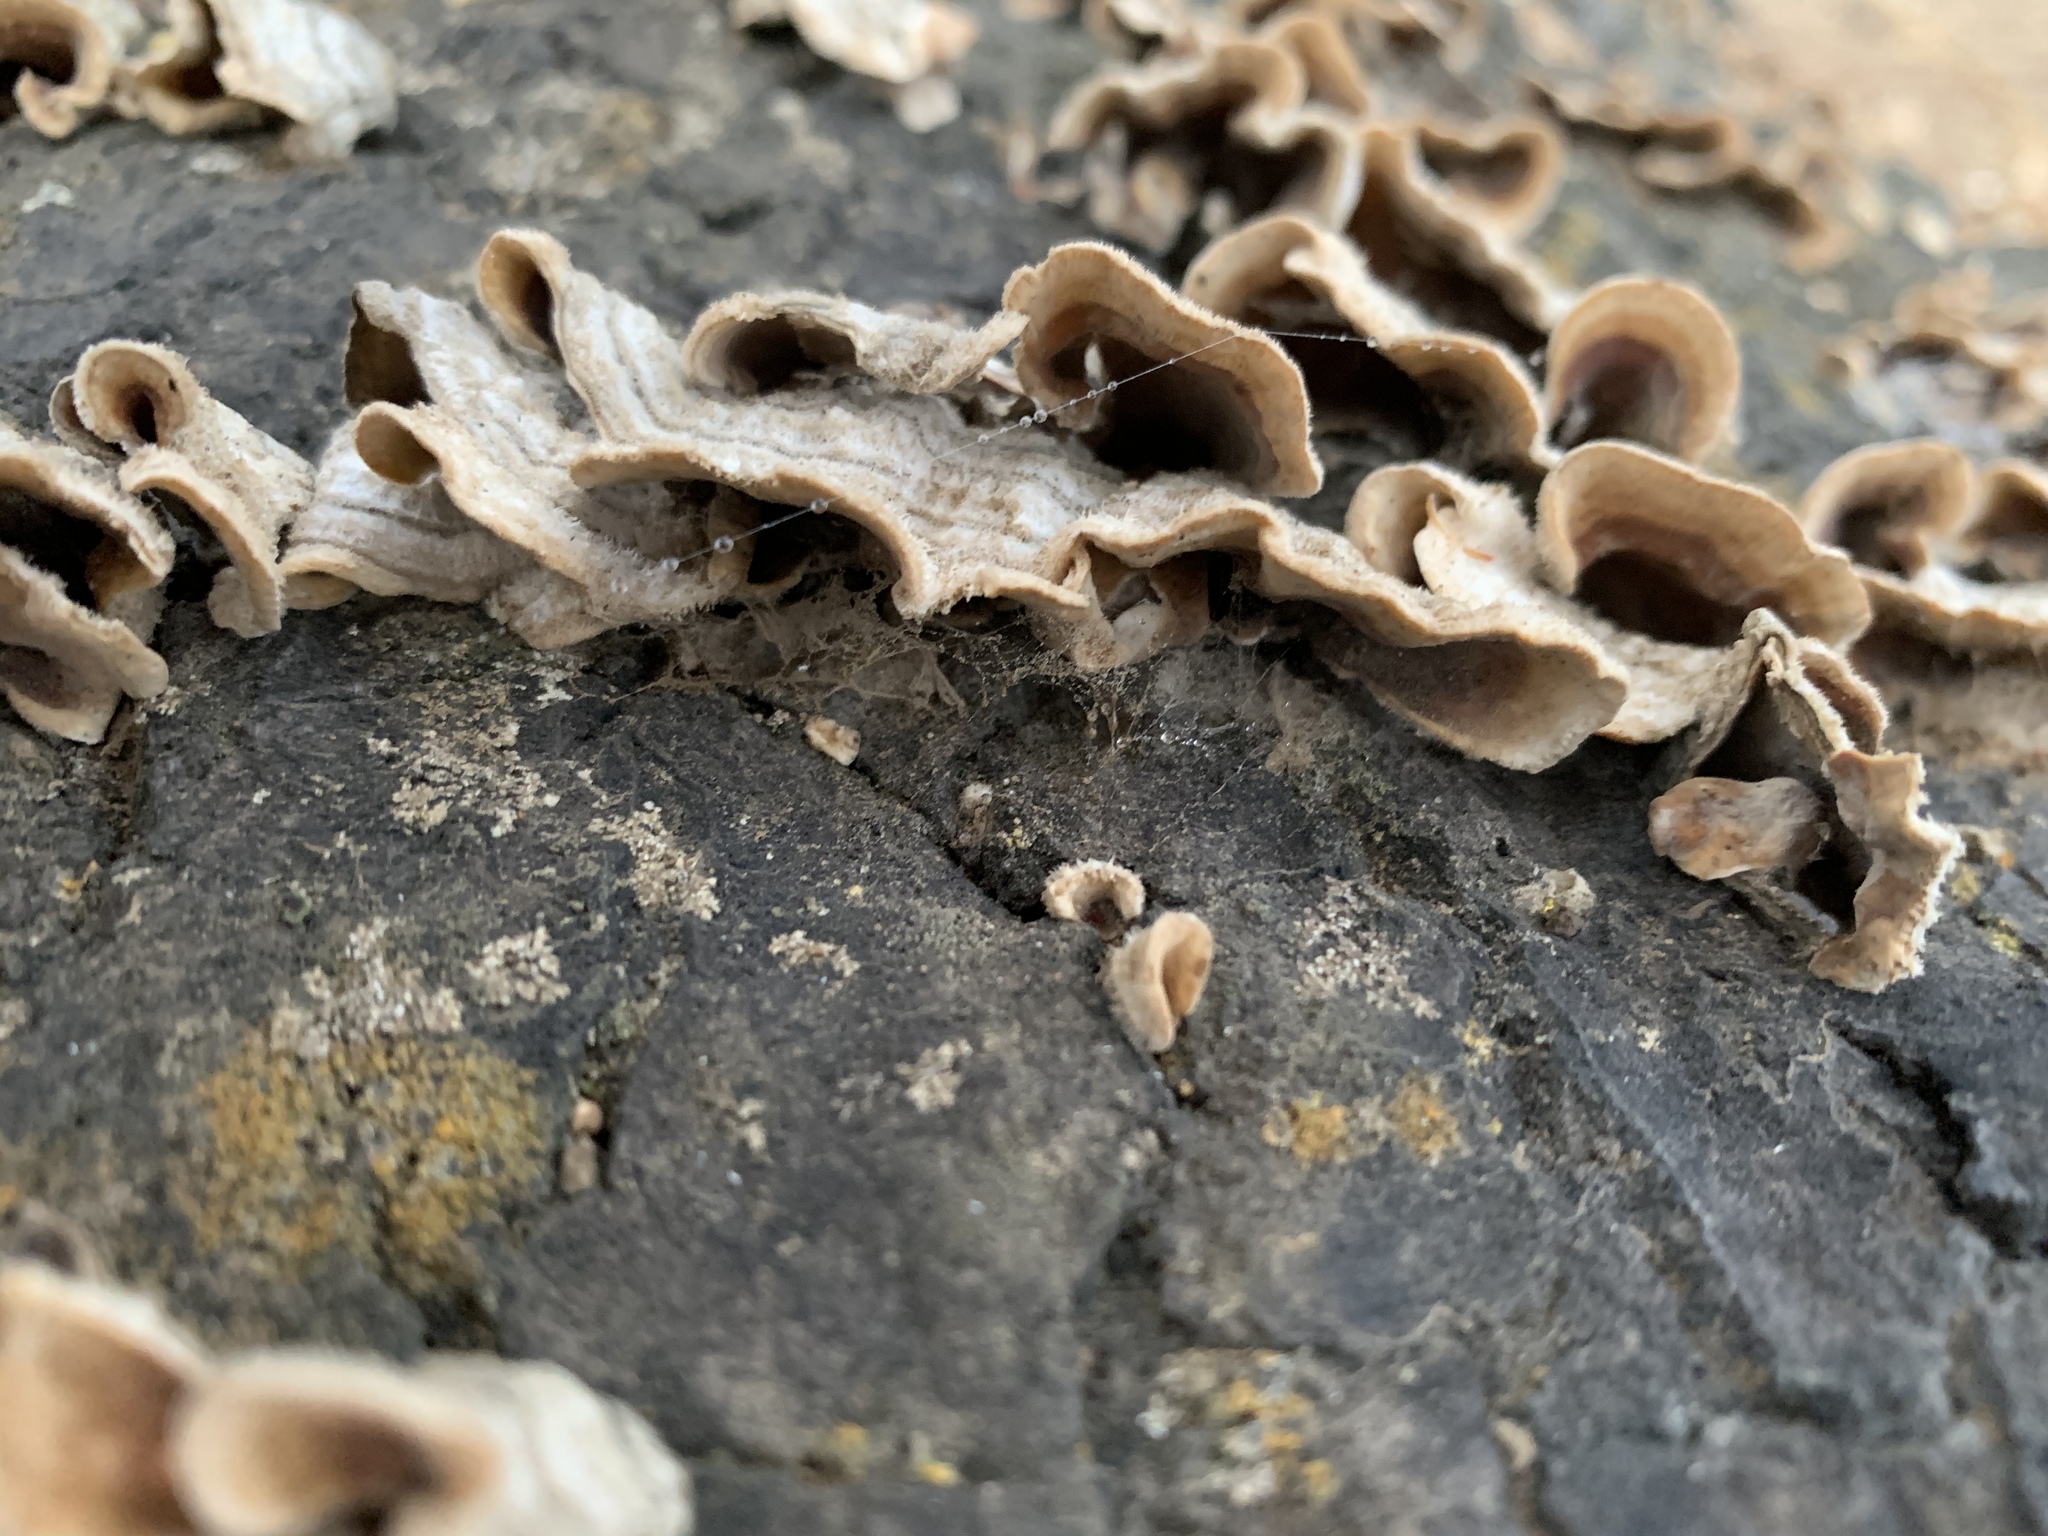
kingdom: Fungi
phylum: Basidiomycota
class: Agaricomycetes
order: Russulales
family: Stereaceae
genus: Stereum
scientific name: Stereum hirsutum
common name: Hairy curtain crust
